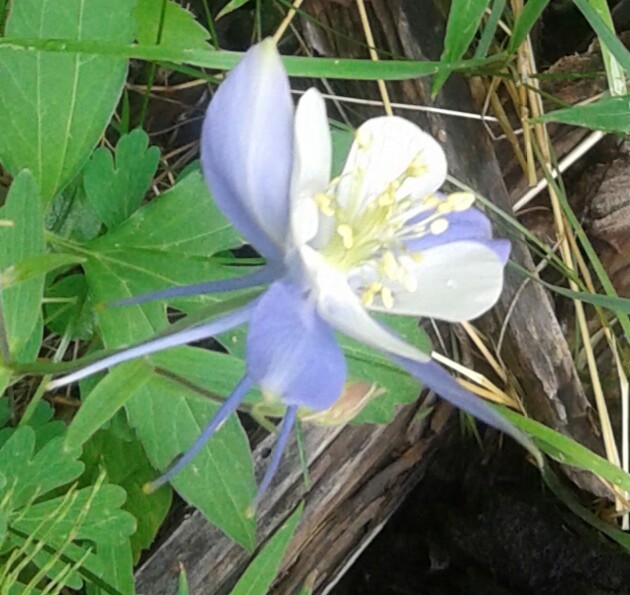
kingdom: Plantae
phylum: Tracheophyta
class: Magnoliopsida
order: Ranunculales
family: Ranunculaceae
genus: Aquilegia
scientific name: Aquilegia coerulea
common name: Rocky mountain columbine
